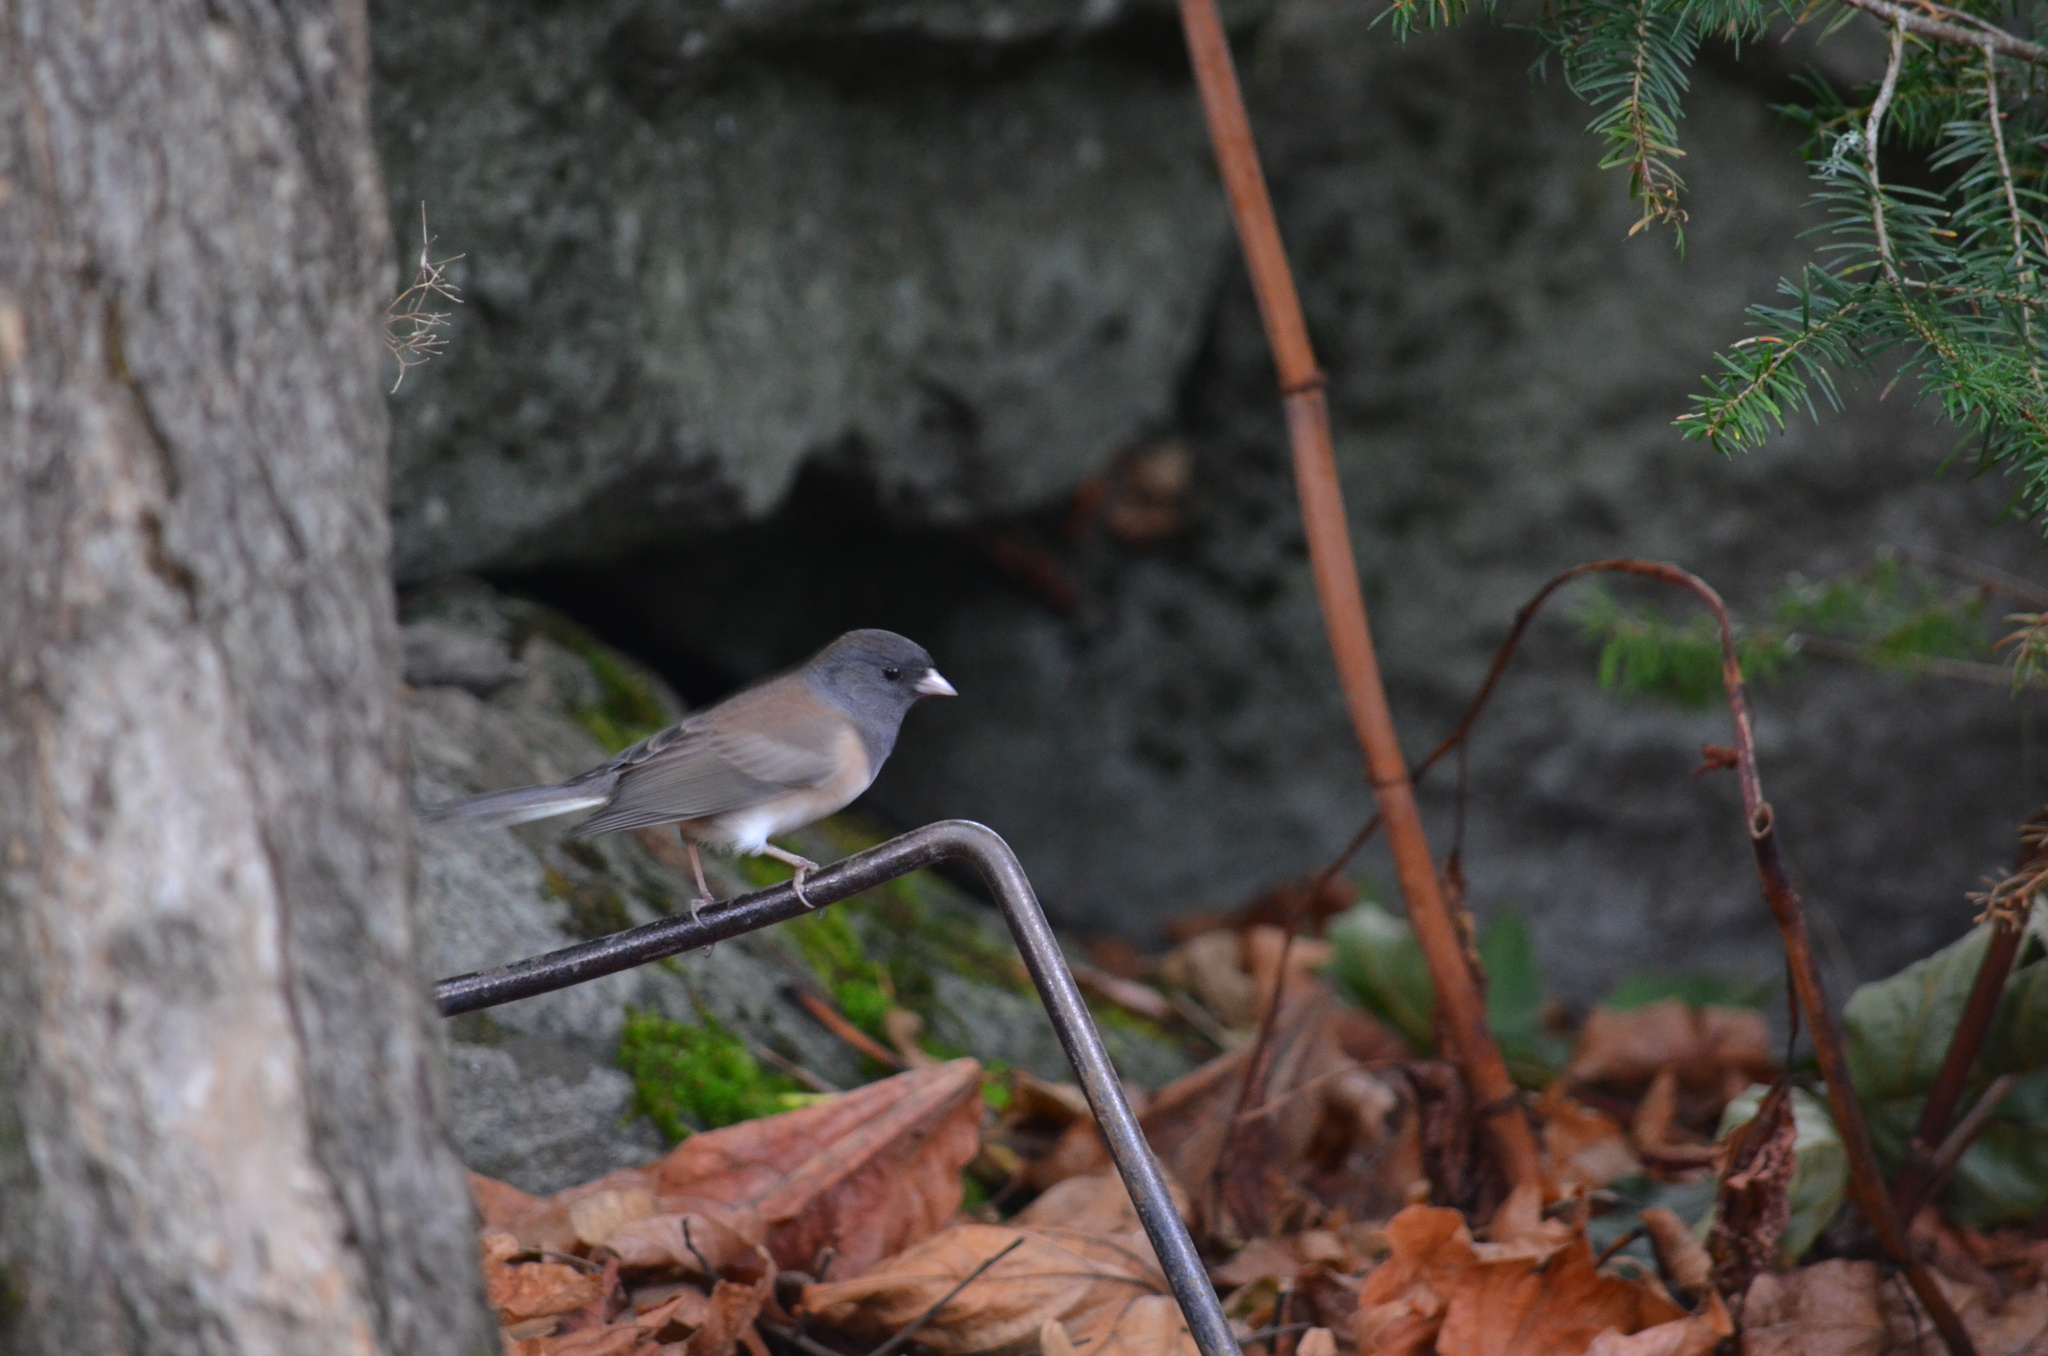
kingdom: Animalia
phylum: Chordata
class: Aves
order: Passeriformes
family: Passerellidae
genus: Junco
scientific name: Junco hyemalis
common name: Dark-eyed junco
